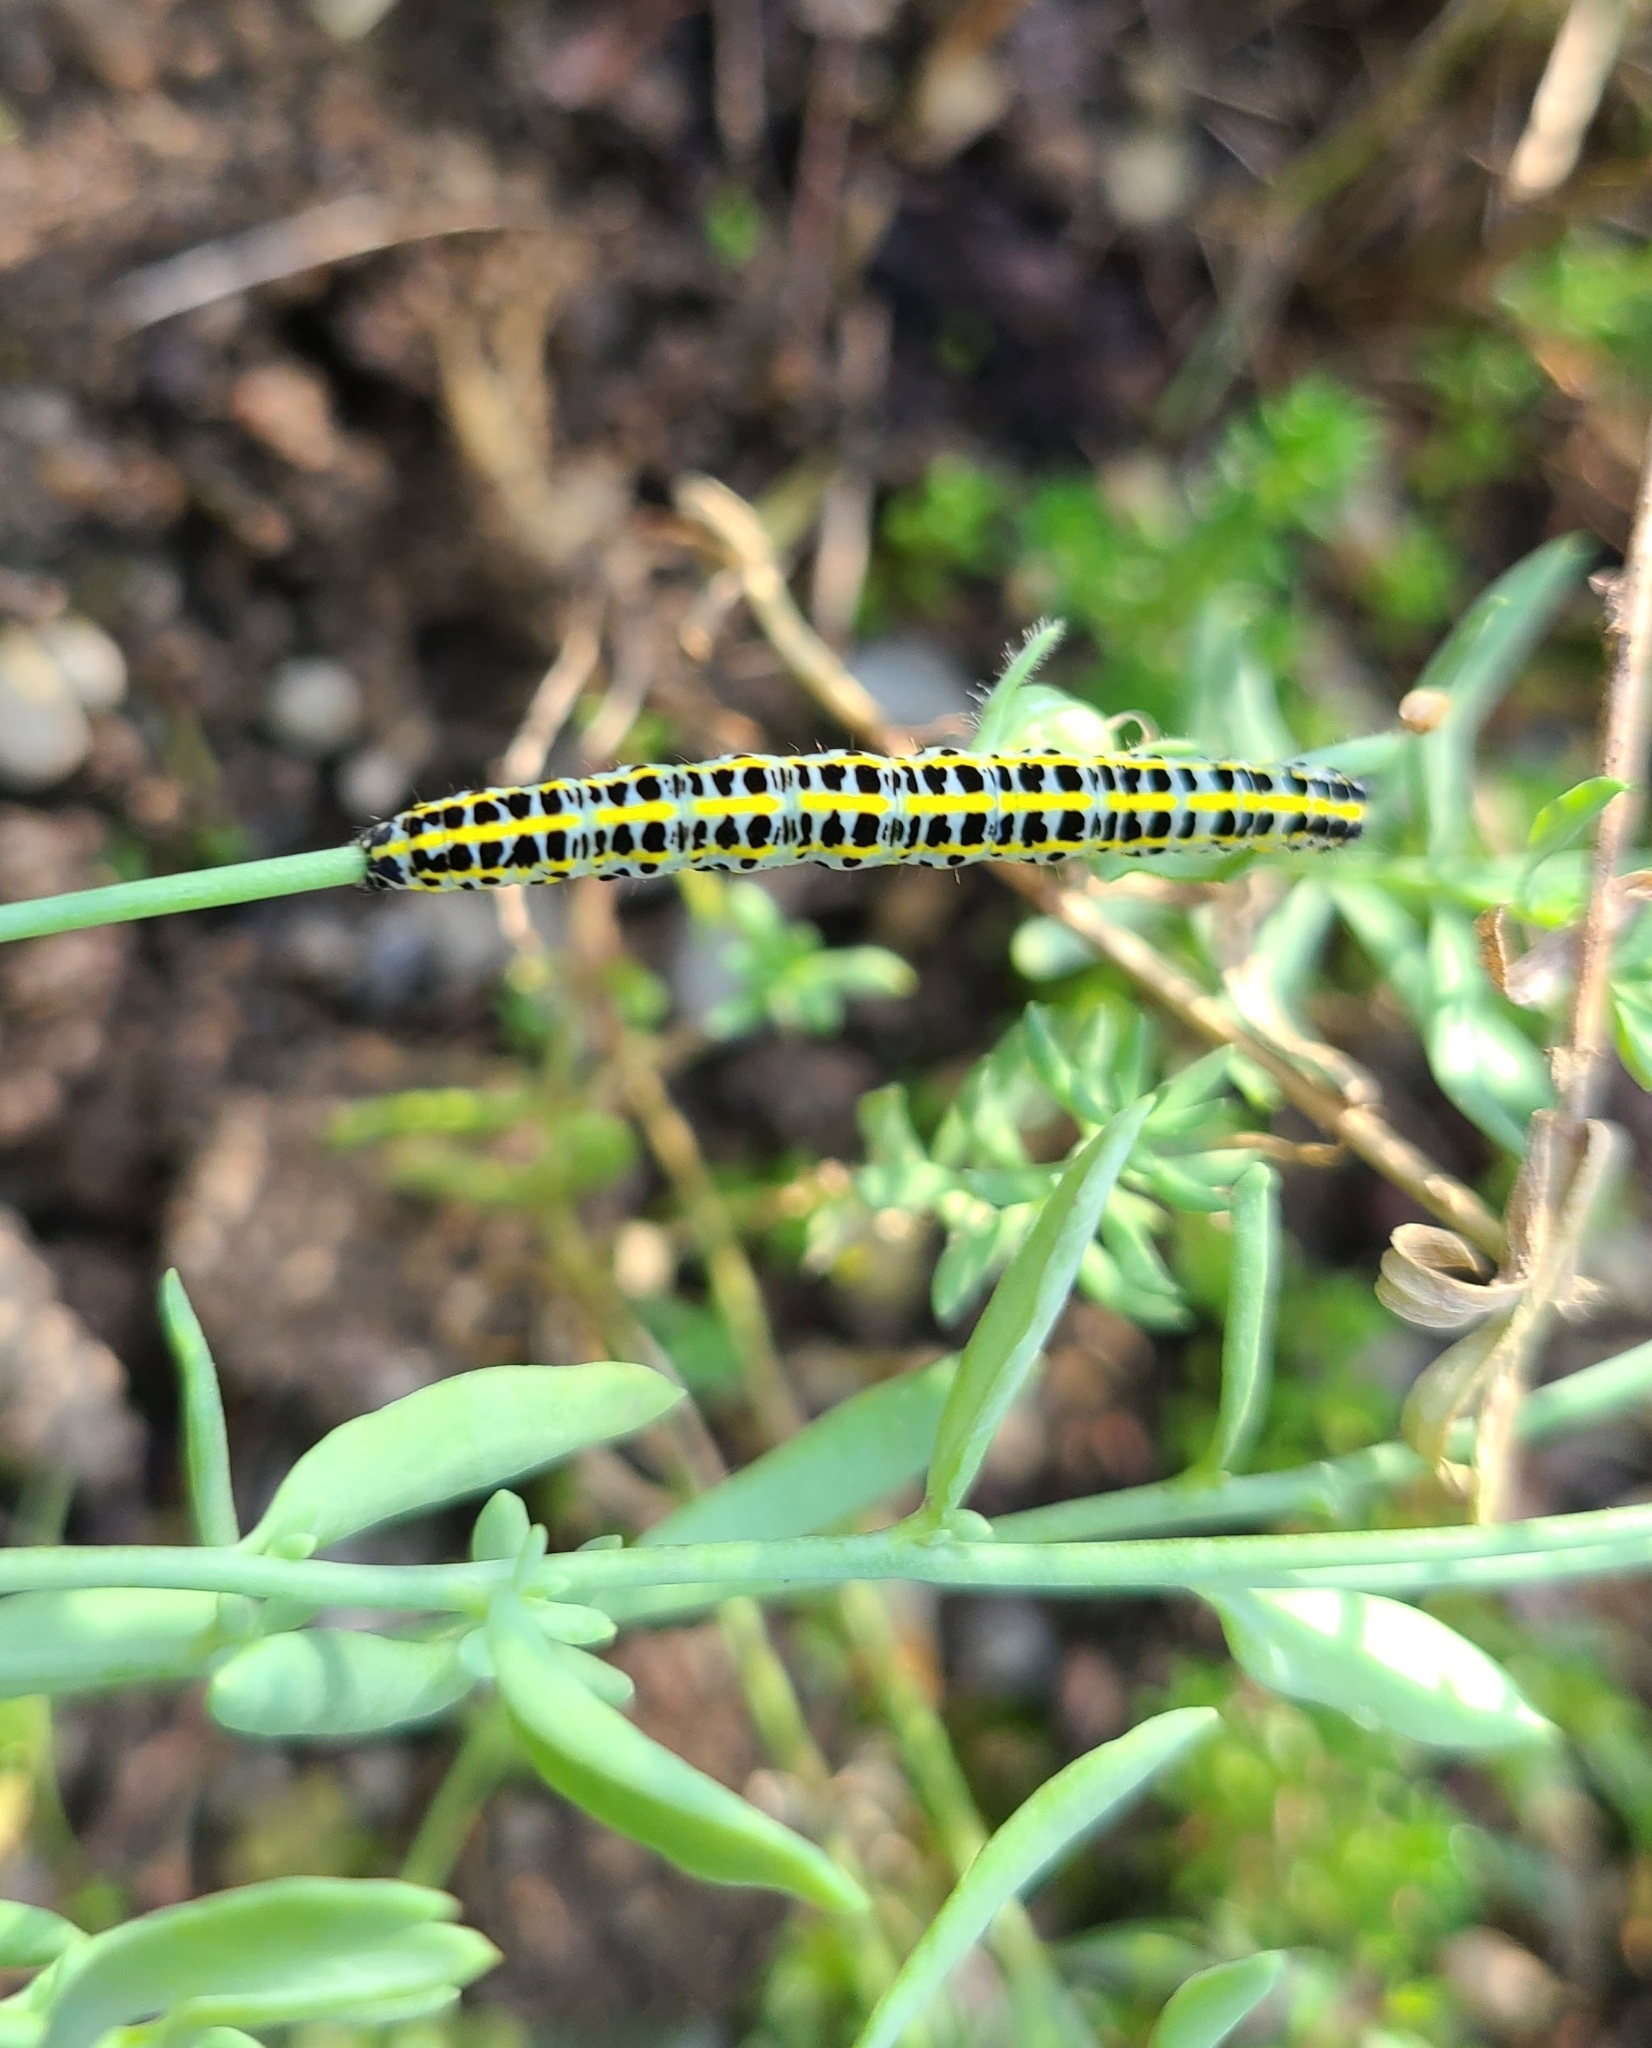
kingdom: Animalia
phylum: Arthropoda
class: Insecta
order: Lepidoptera
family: Noctuidae
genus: Calophasia
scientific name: Calophasia lunula
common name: Toadflax brocade
